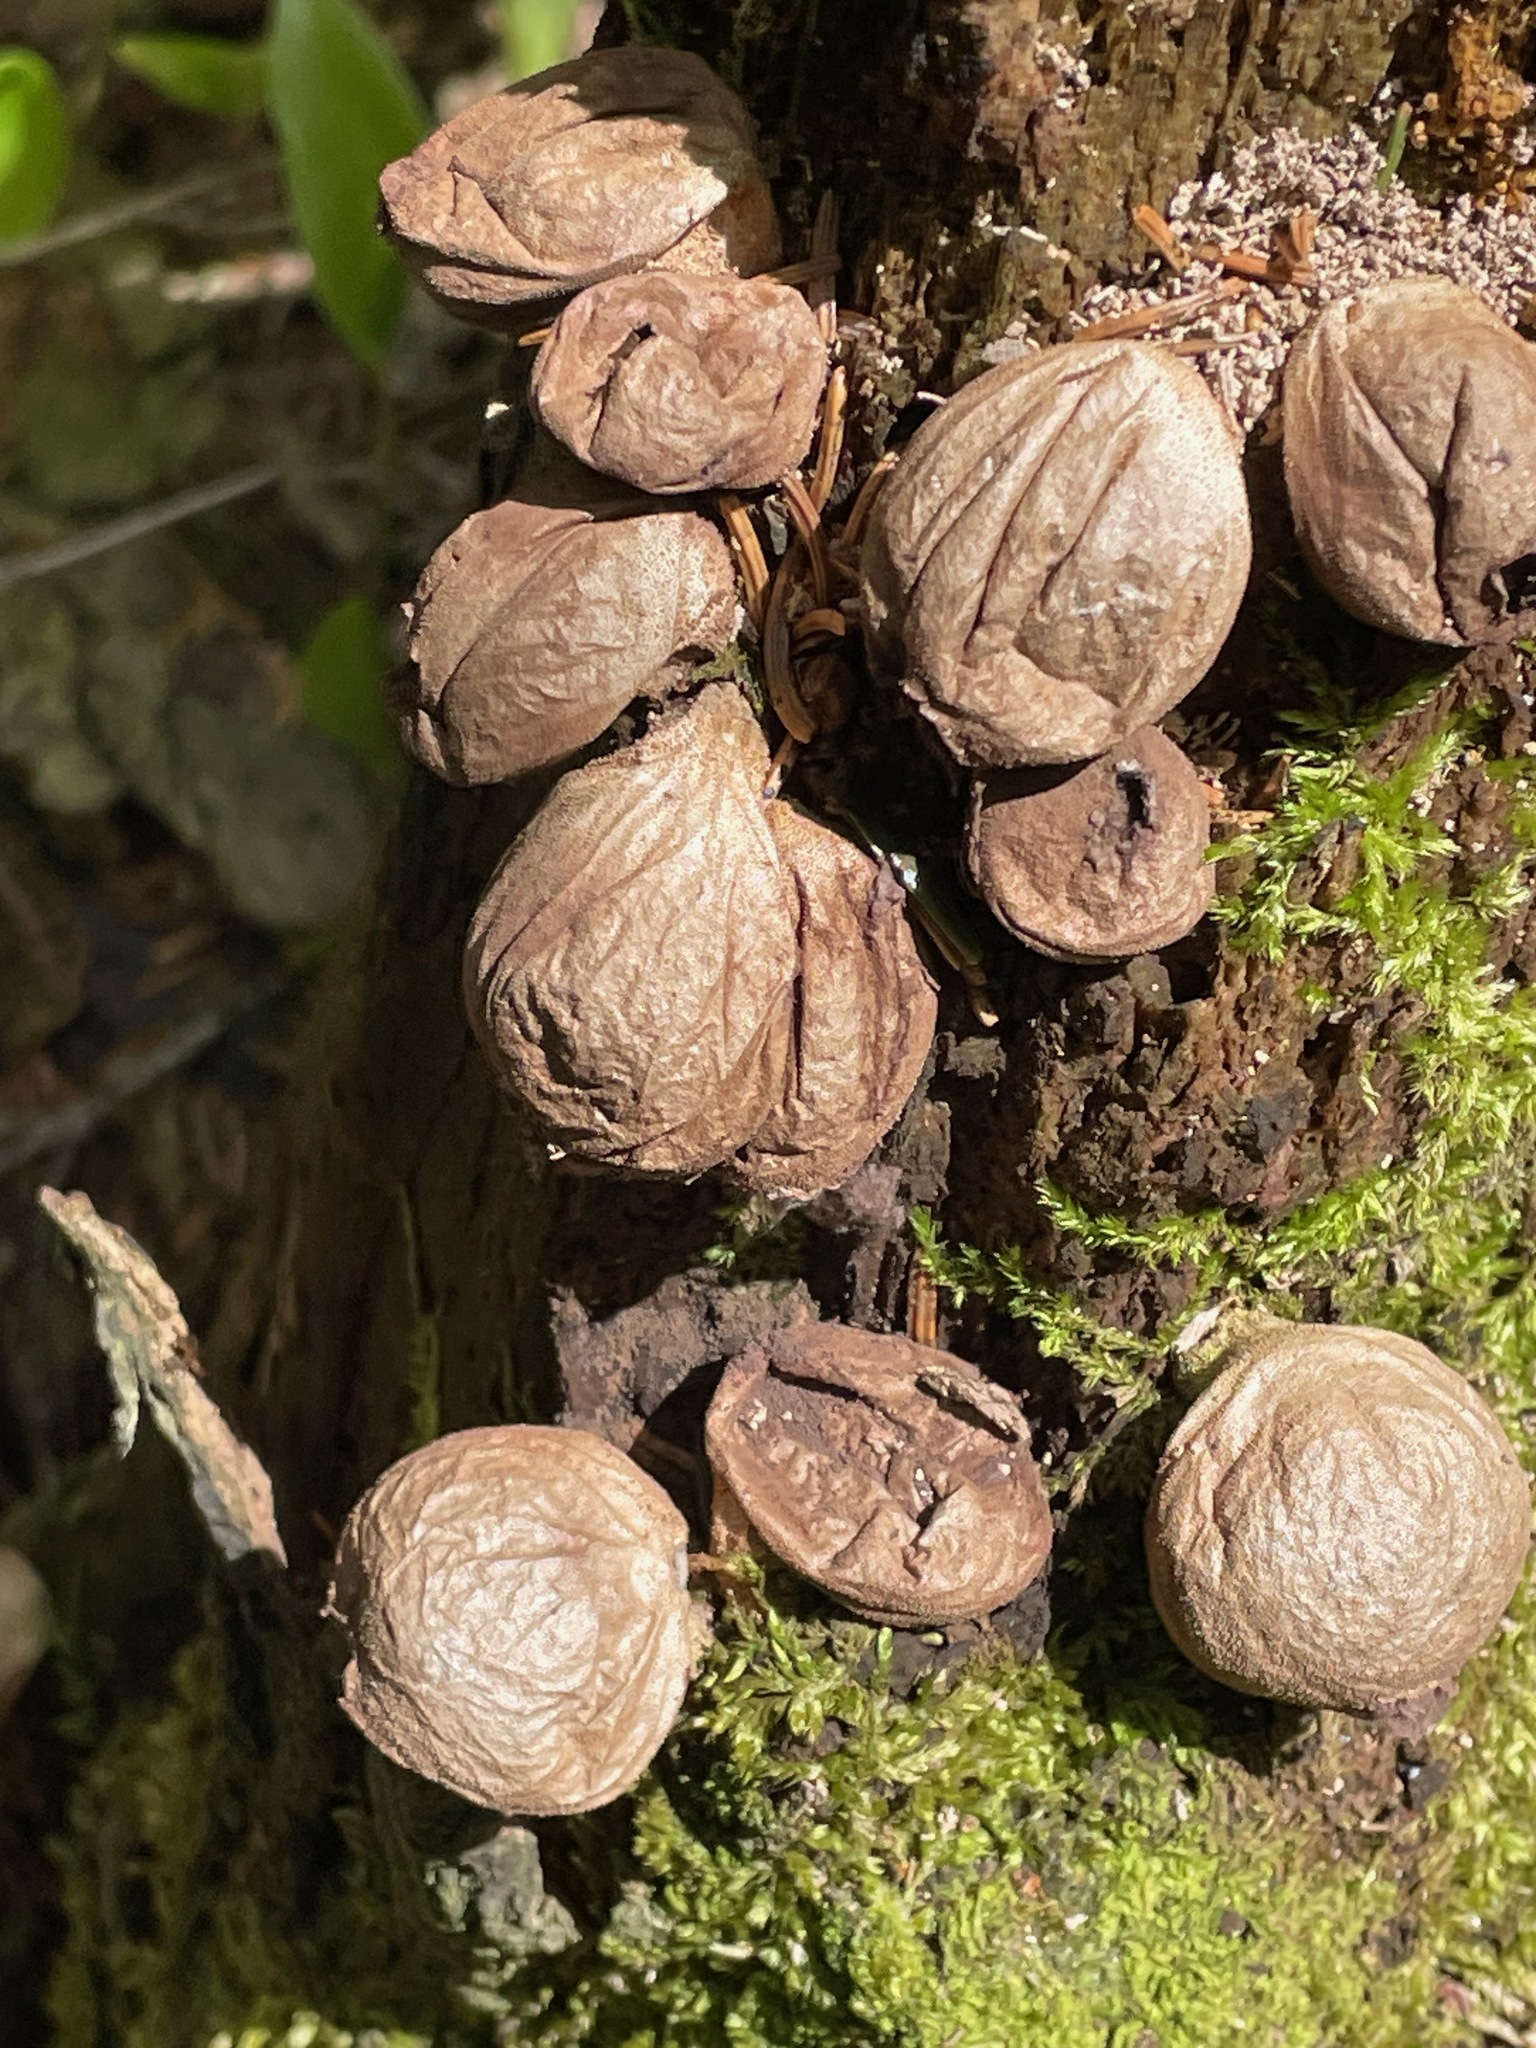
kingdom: Fungi
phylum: Basidiomycota
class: Agaricomycetes
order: Agaricales
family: Lycoperdaceae
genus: Apioperdon
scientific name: Apioperdon pyriforme
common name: Pear-shaped puffball
